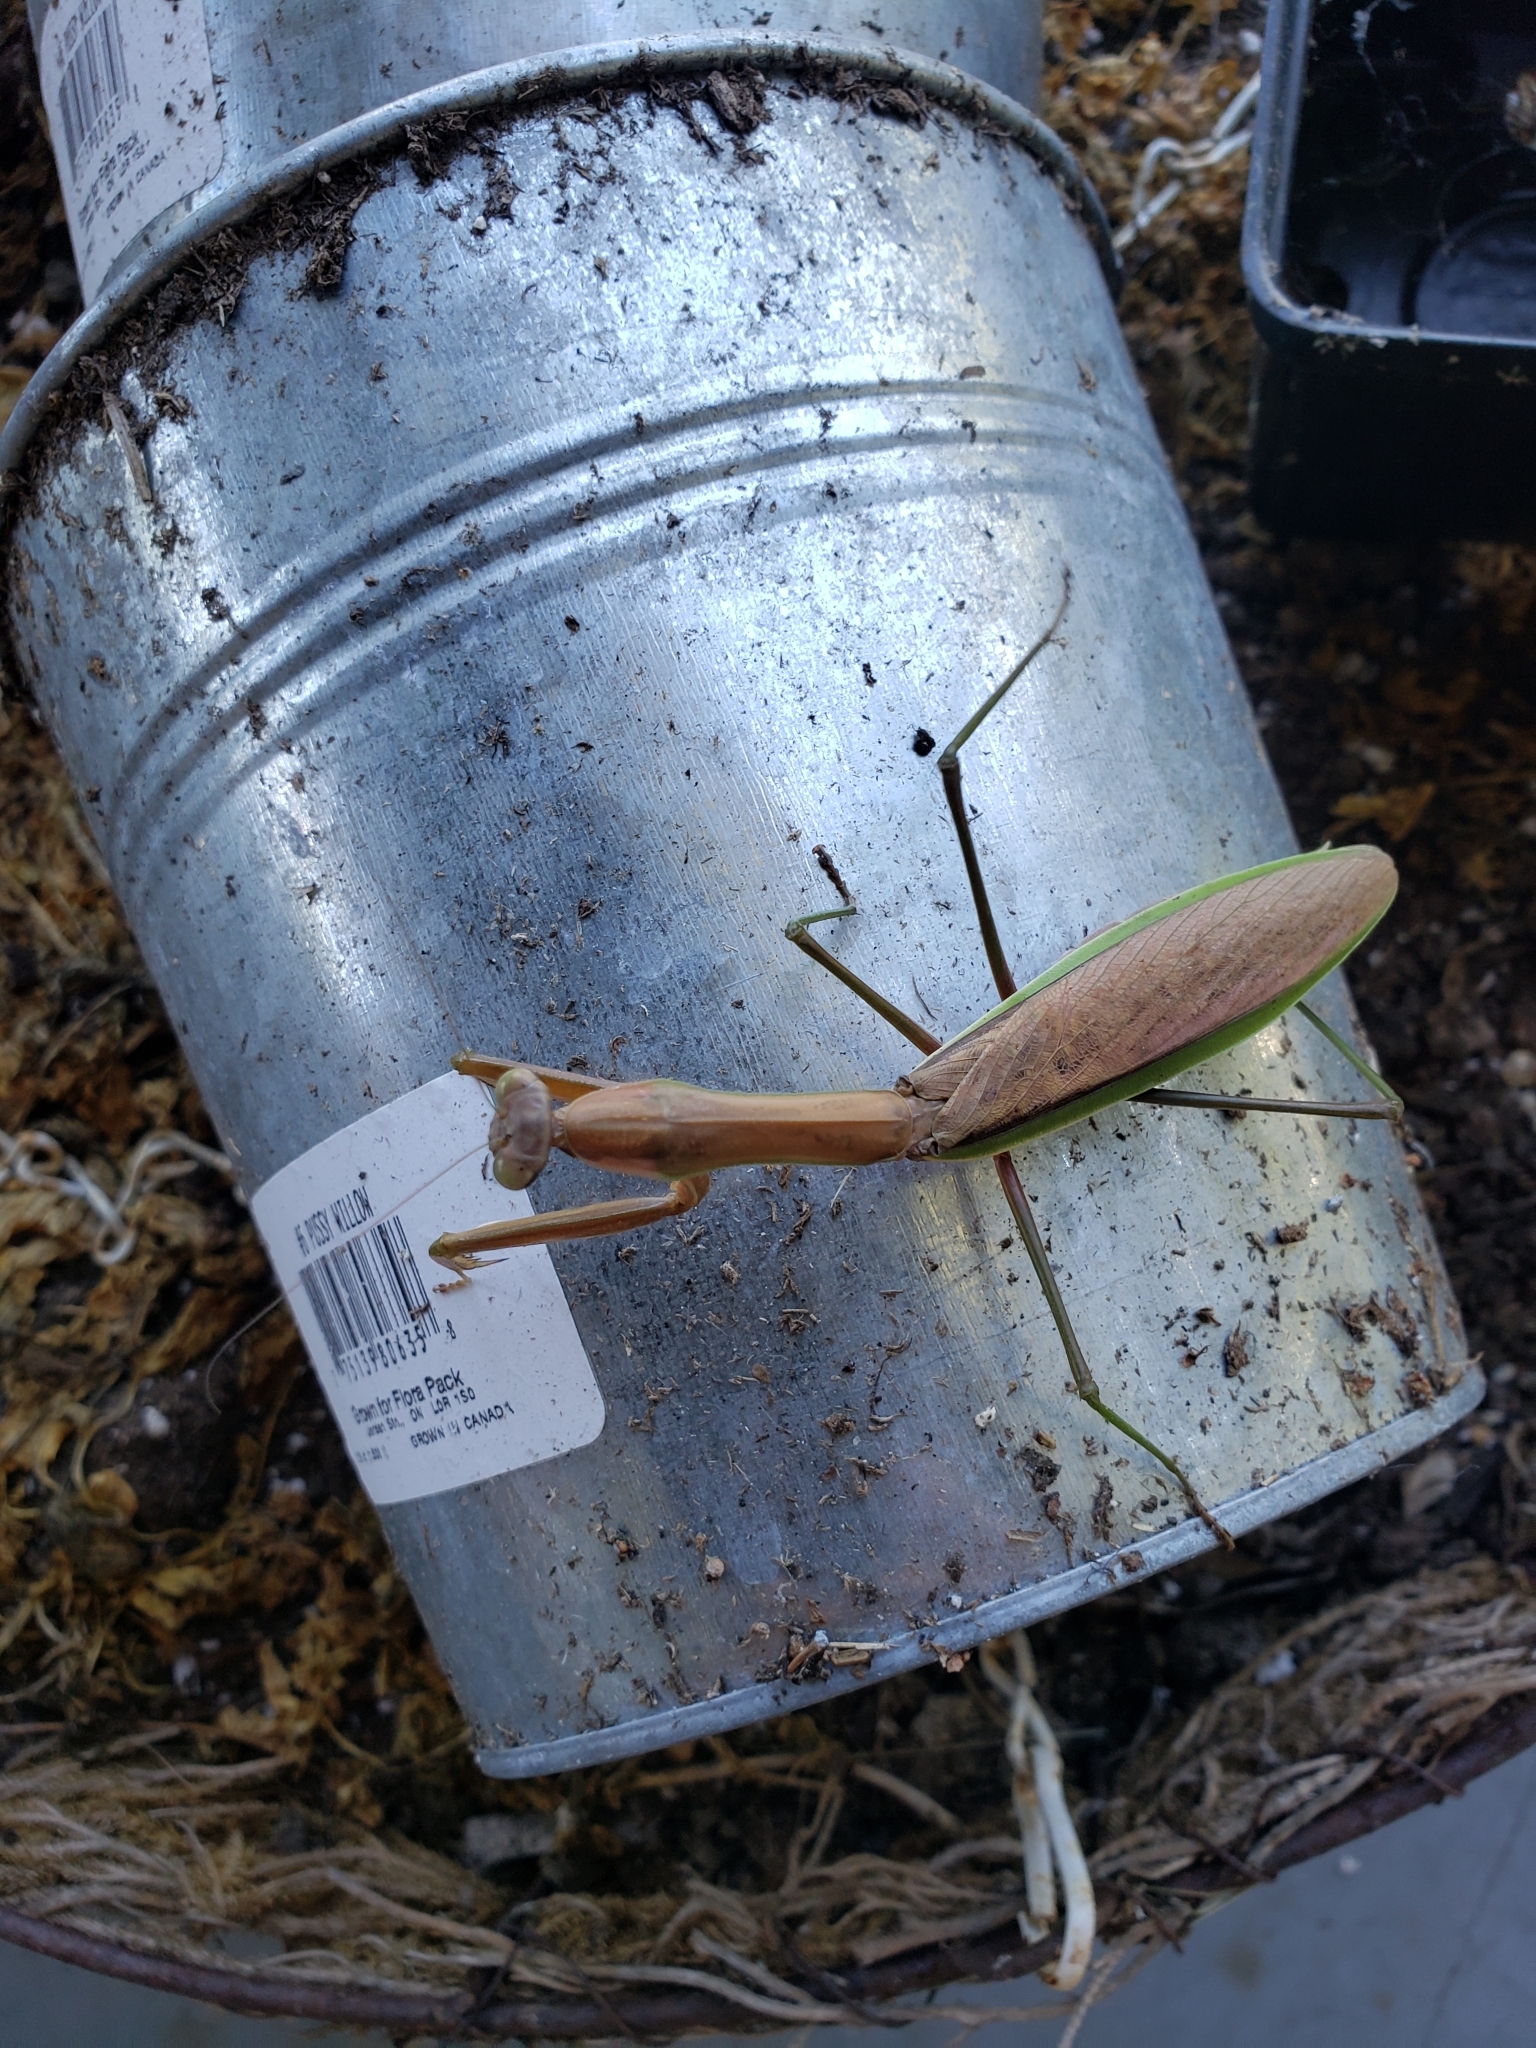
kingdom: Animalia
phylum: Arthropoda
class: Insecta
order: Mantodea
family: Mantidae
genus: Tenodera
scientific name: Tenodera sinensis
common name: Chinese mantis
